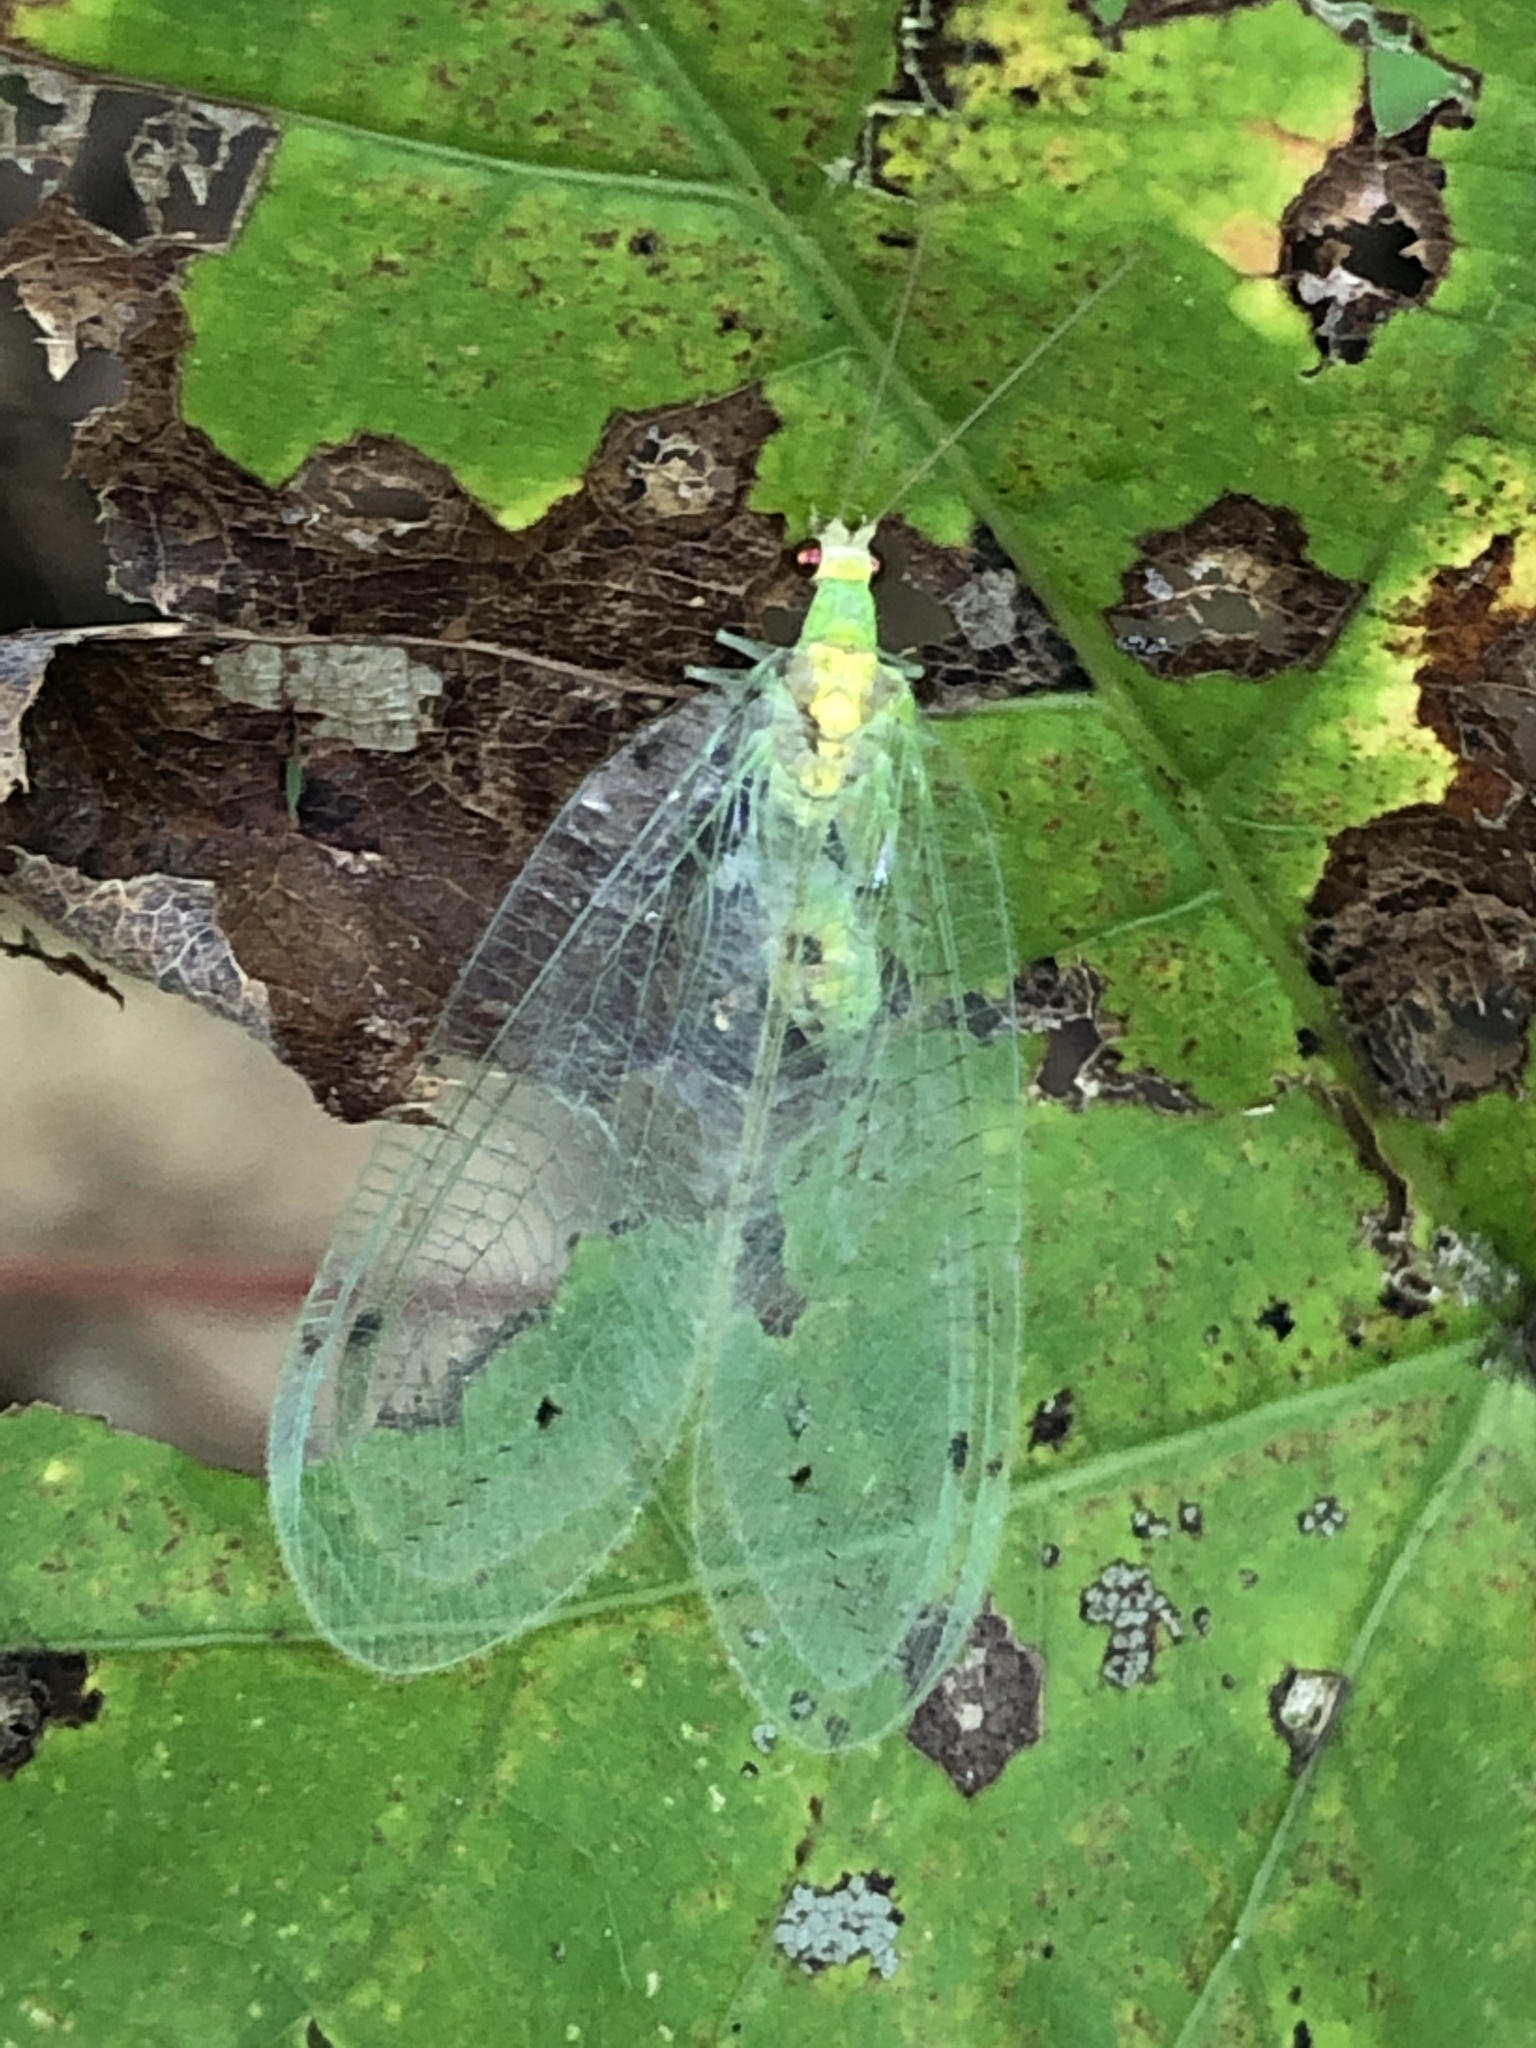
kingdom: Animalia
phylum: Arthropoda
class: Insecta
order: Neuroptera
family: Chrysopidae
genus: Leucochrysa
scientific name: Leucochrysa insularis
